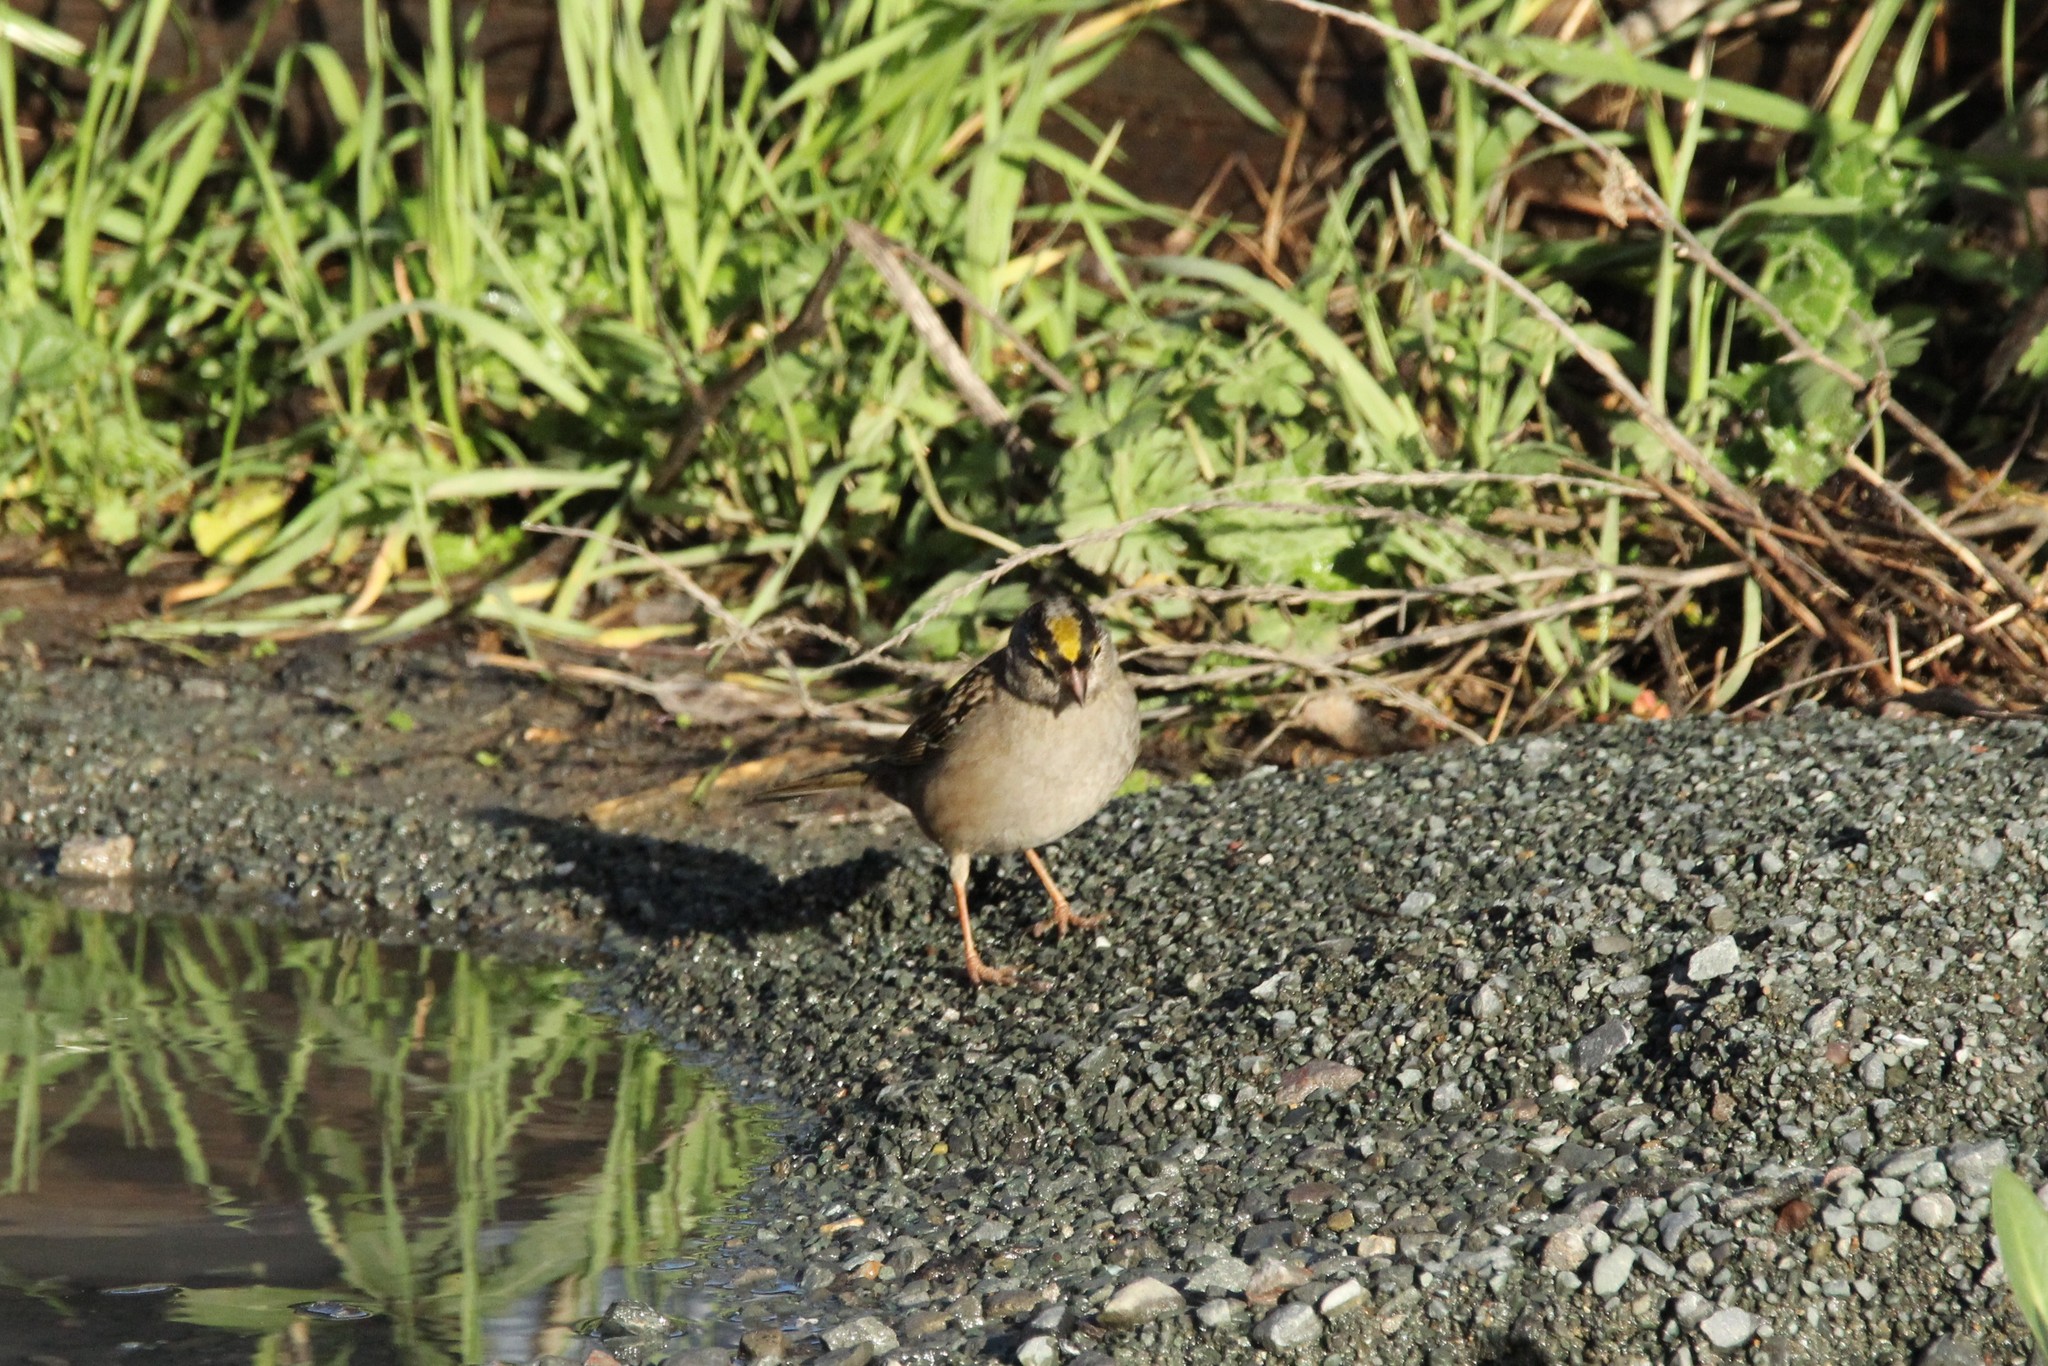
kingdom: Animalia
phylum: Chordata
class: Aves
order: Passeriformes
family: Passerellidae
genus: Zonotrichia
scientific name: Zonotrichia atricapilla
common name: Golden-crowned sparrow
